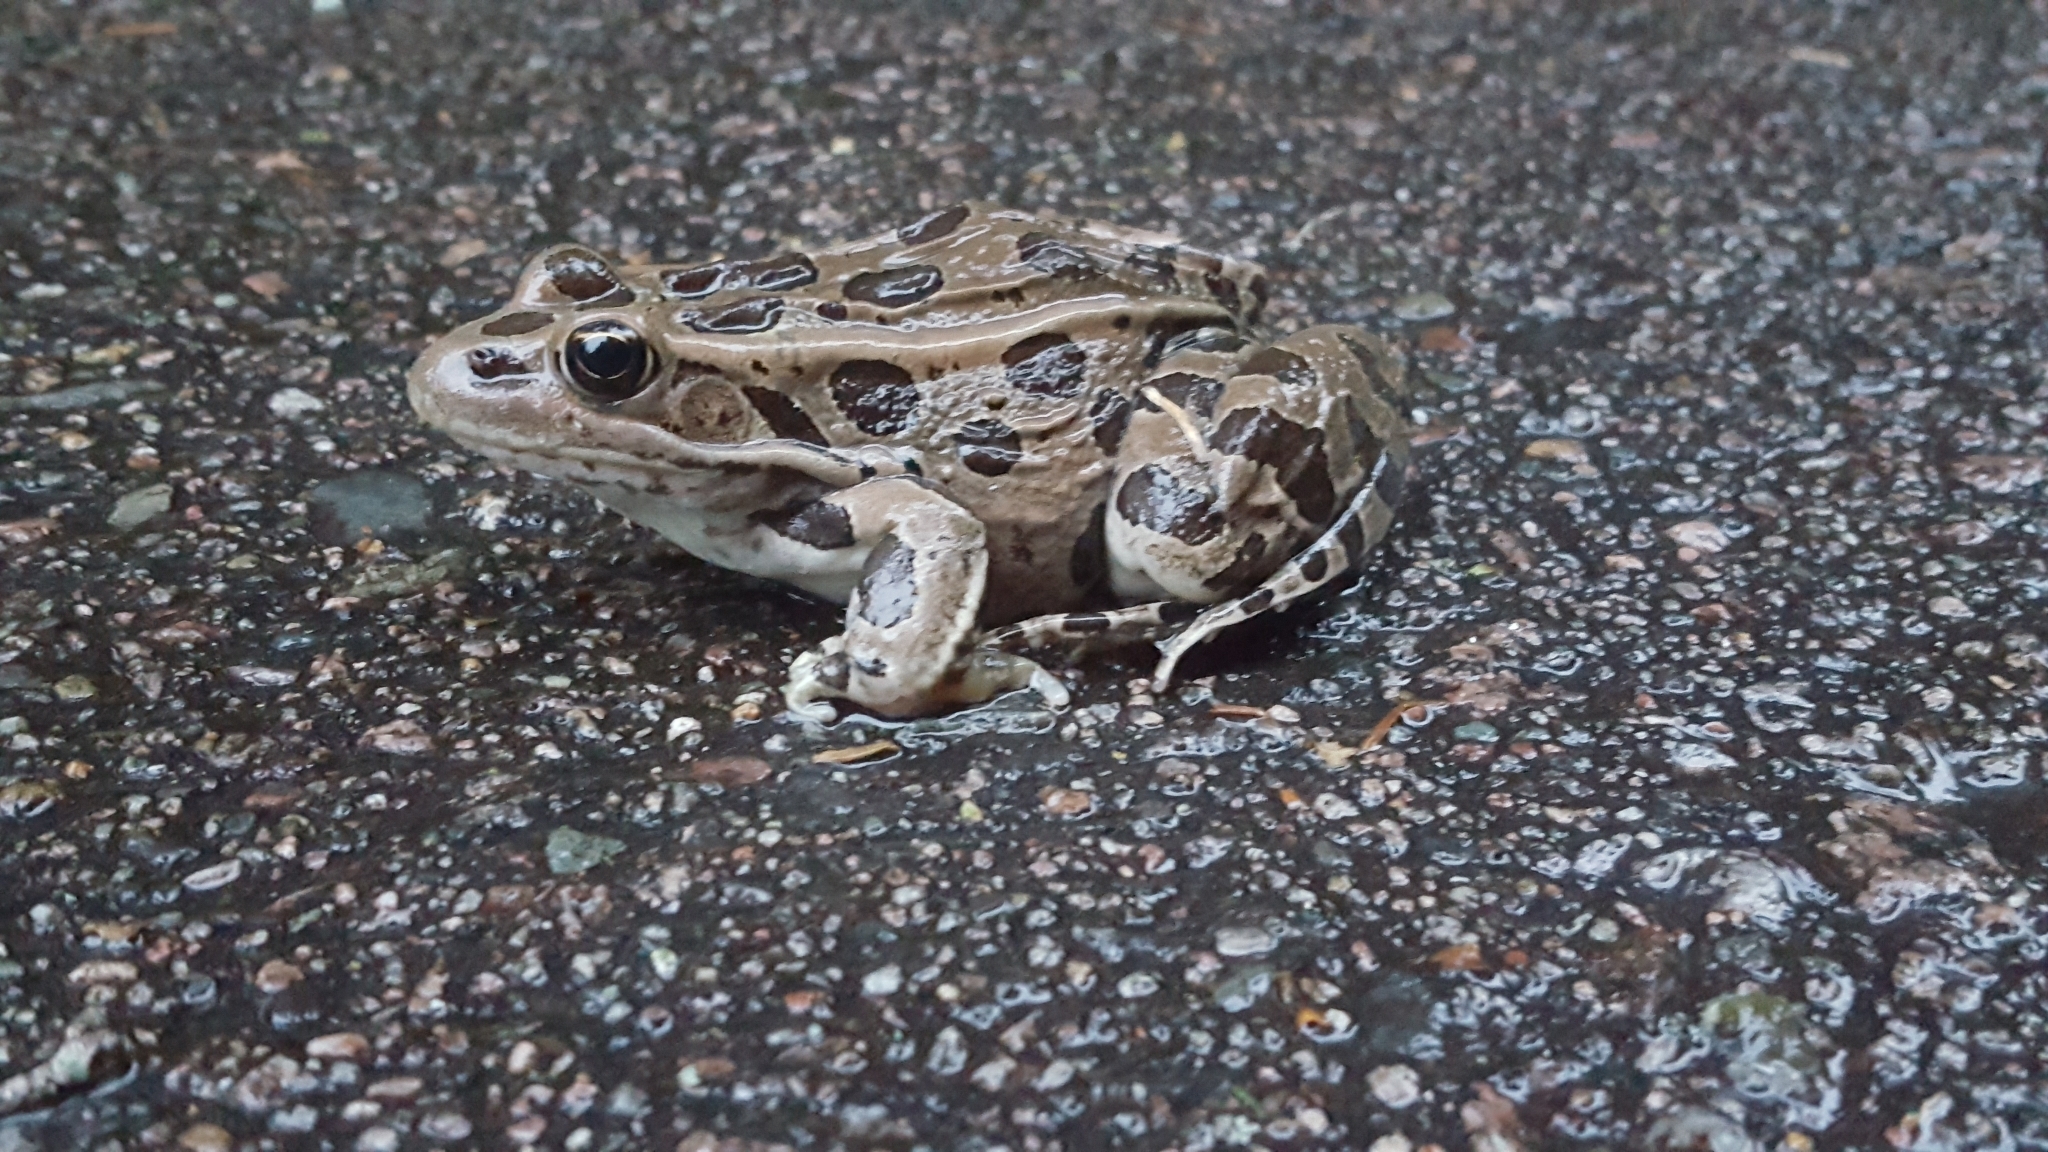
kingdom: Animalia
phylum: Chordata
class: Amphibia
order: Anura
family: Ranidae
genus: Lithobates
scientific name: Lithobates pipiens
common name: Northern leopard frog
